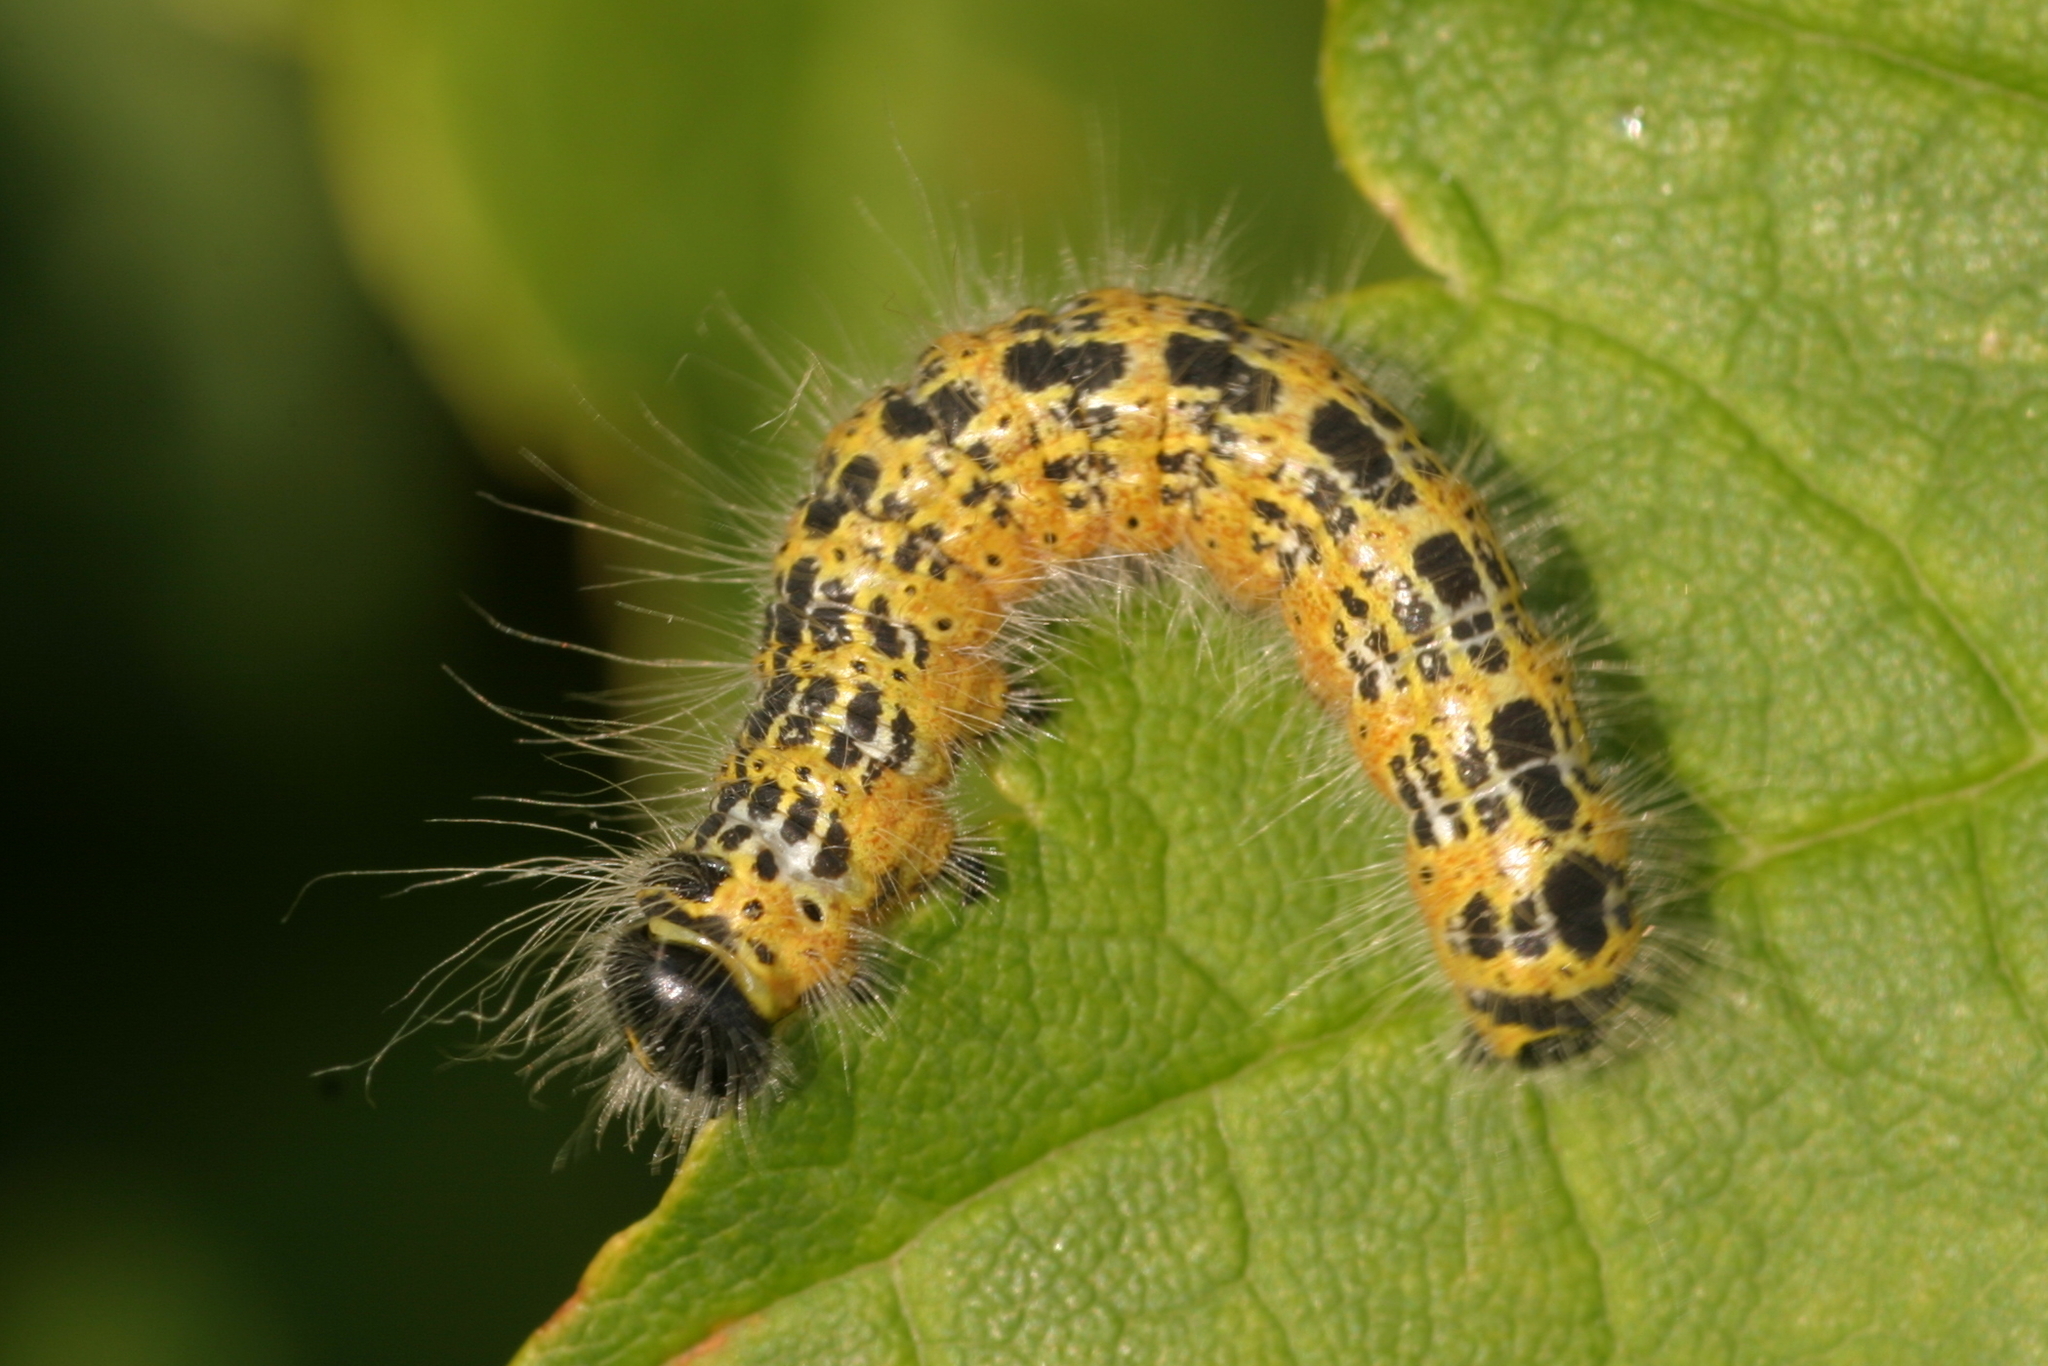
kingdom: Animalia
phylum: Arthropoda
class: Insecta
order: Lepidoptera
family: Notodontidae
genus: Phalera
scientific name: Phalera bucephala
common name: Buff-tip
